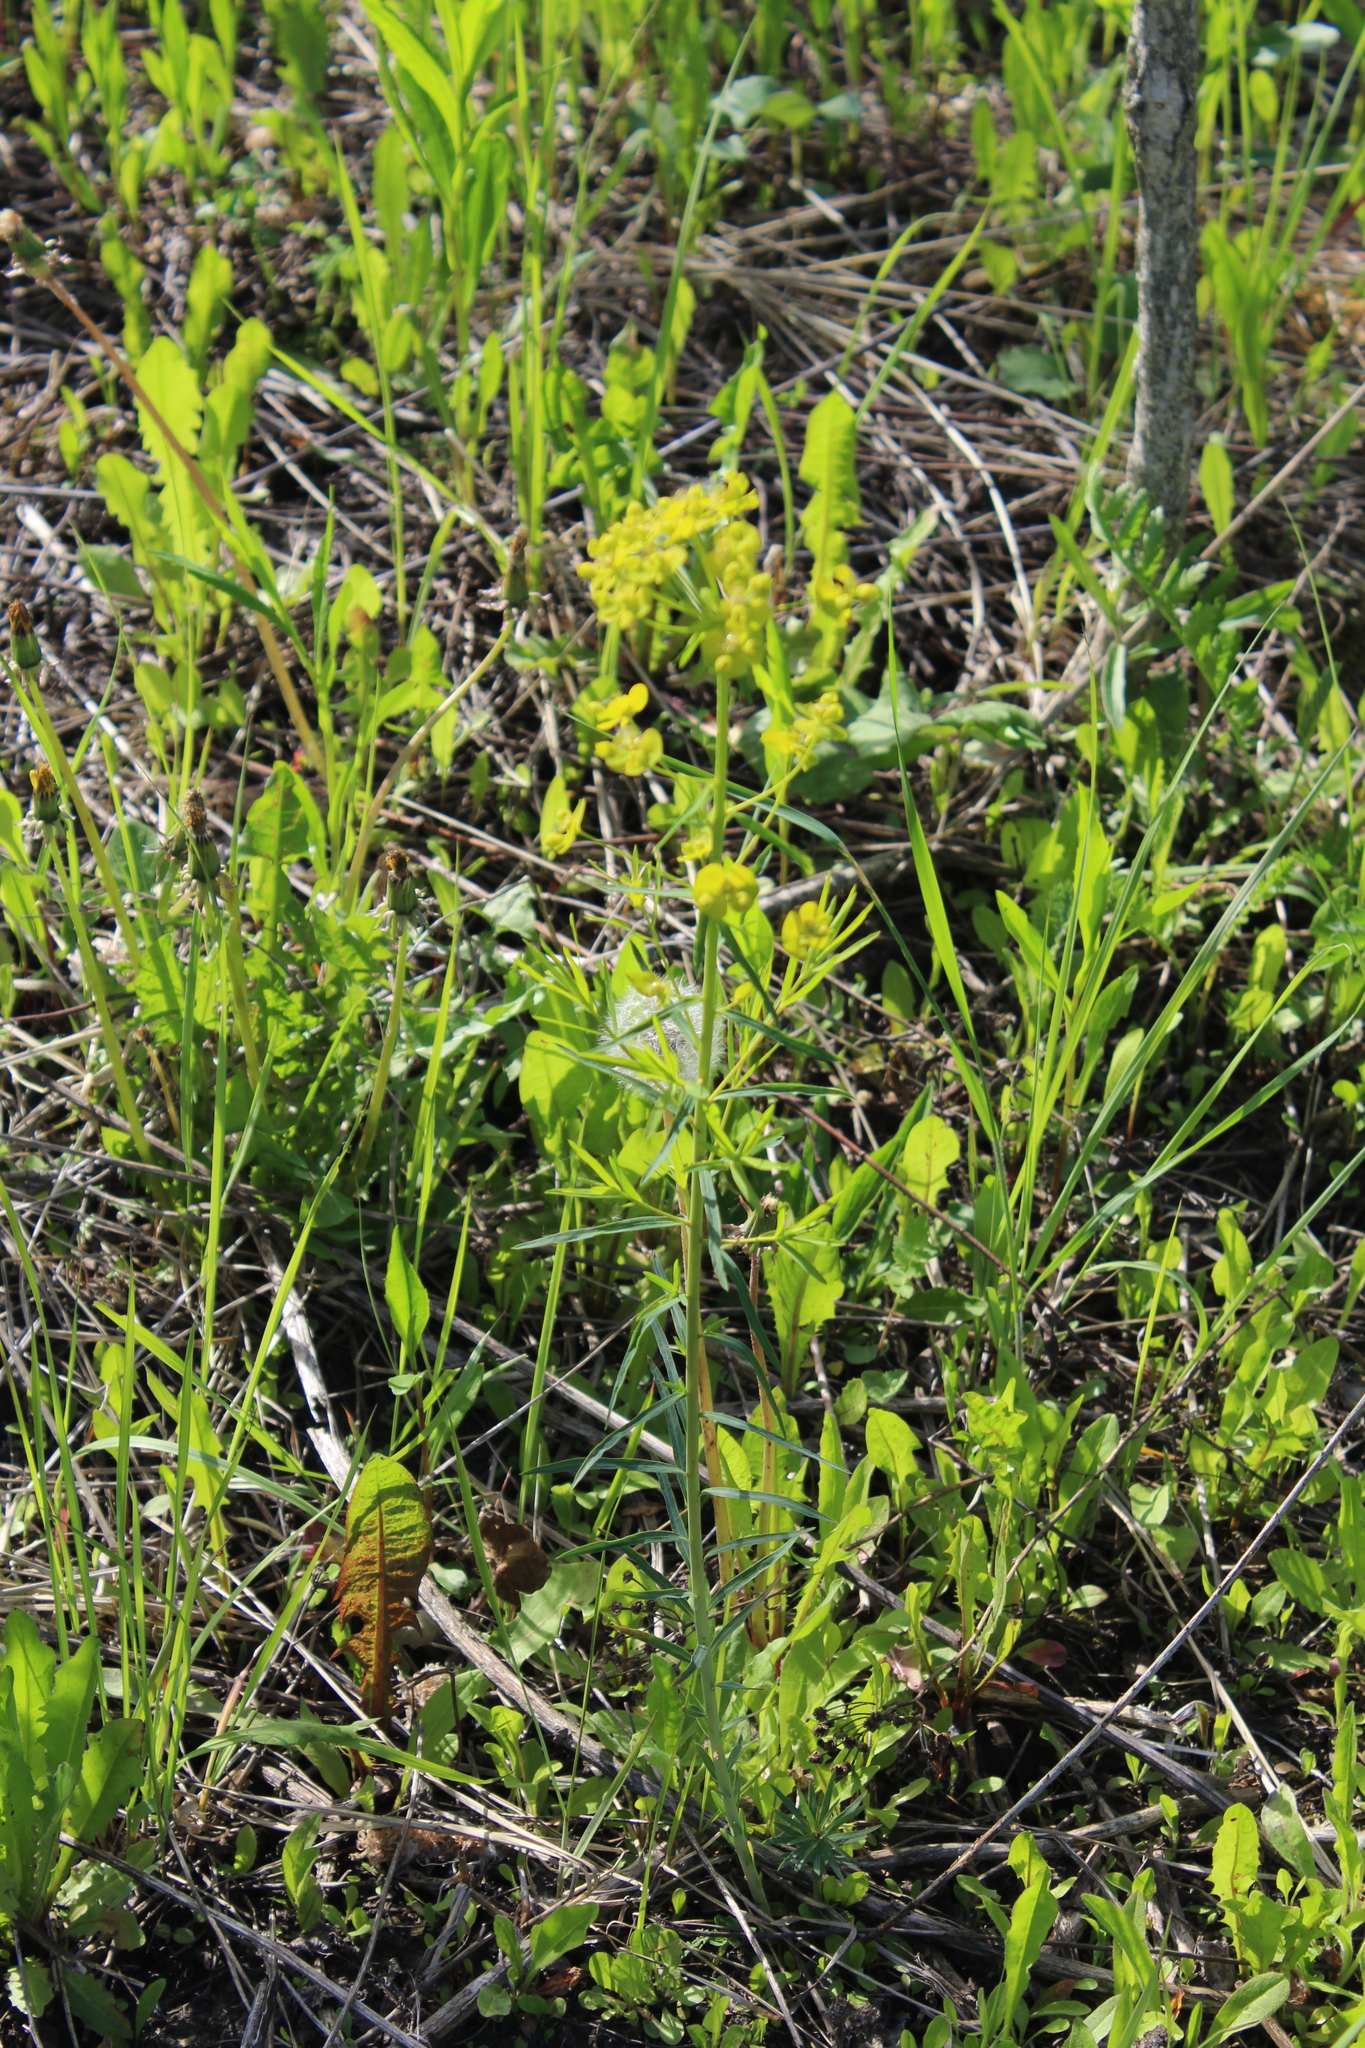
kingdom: Plantae
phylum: Tracheophyta
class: Magnoliopsida
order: Malpighiales
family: Euphorbiaceae
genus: Euphorbia
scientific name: Euphorbia virgata
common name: Leafy spurge
